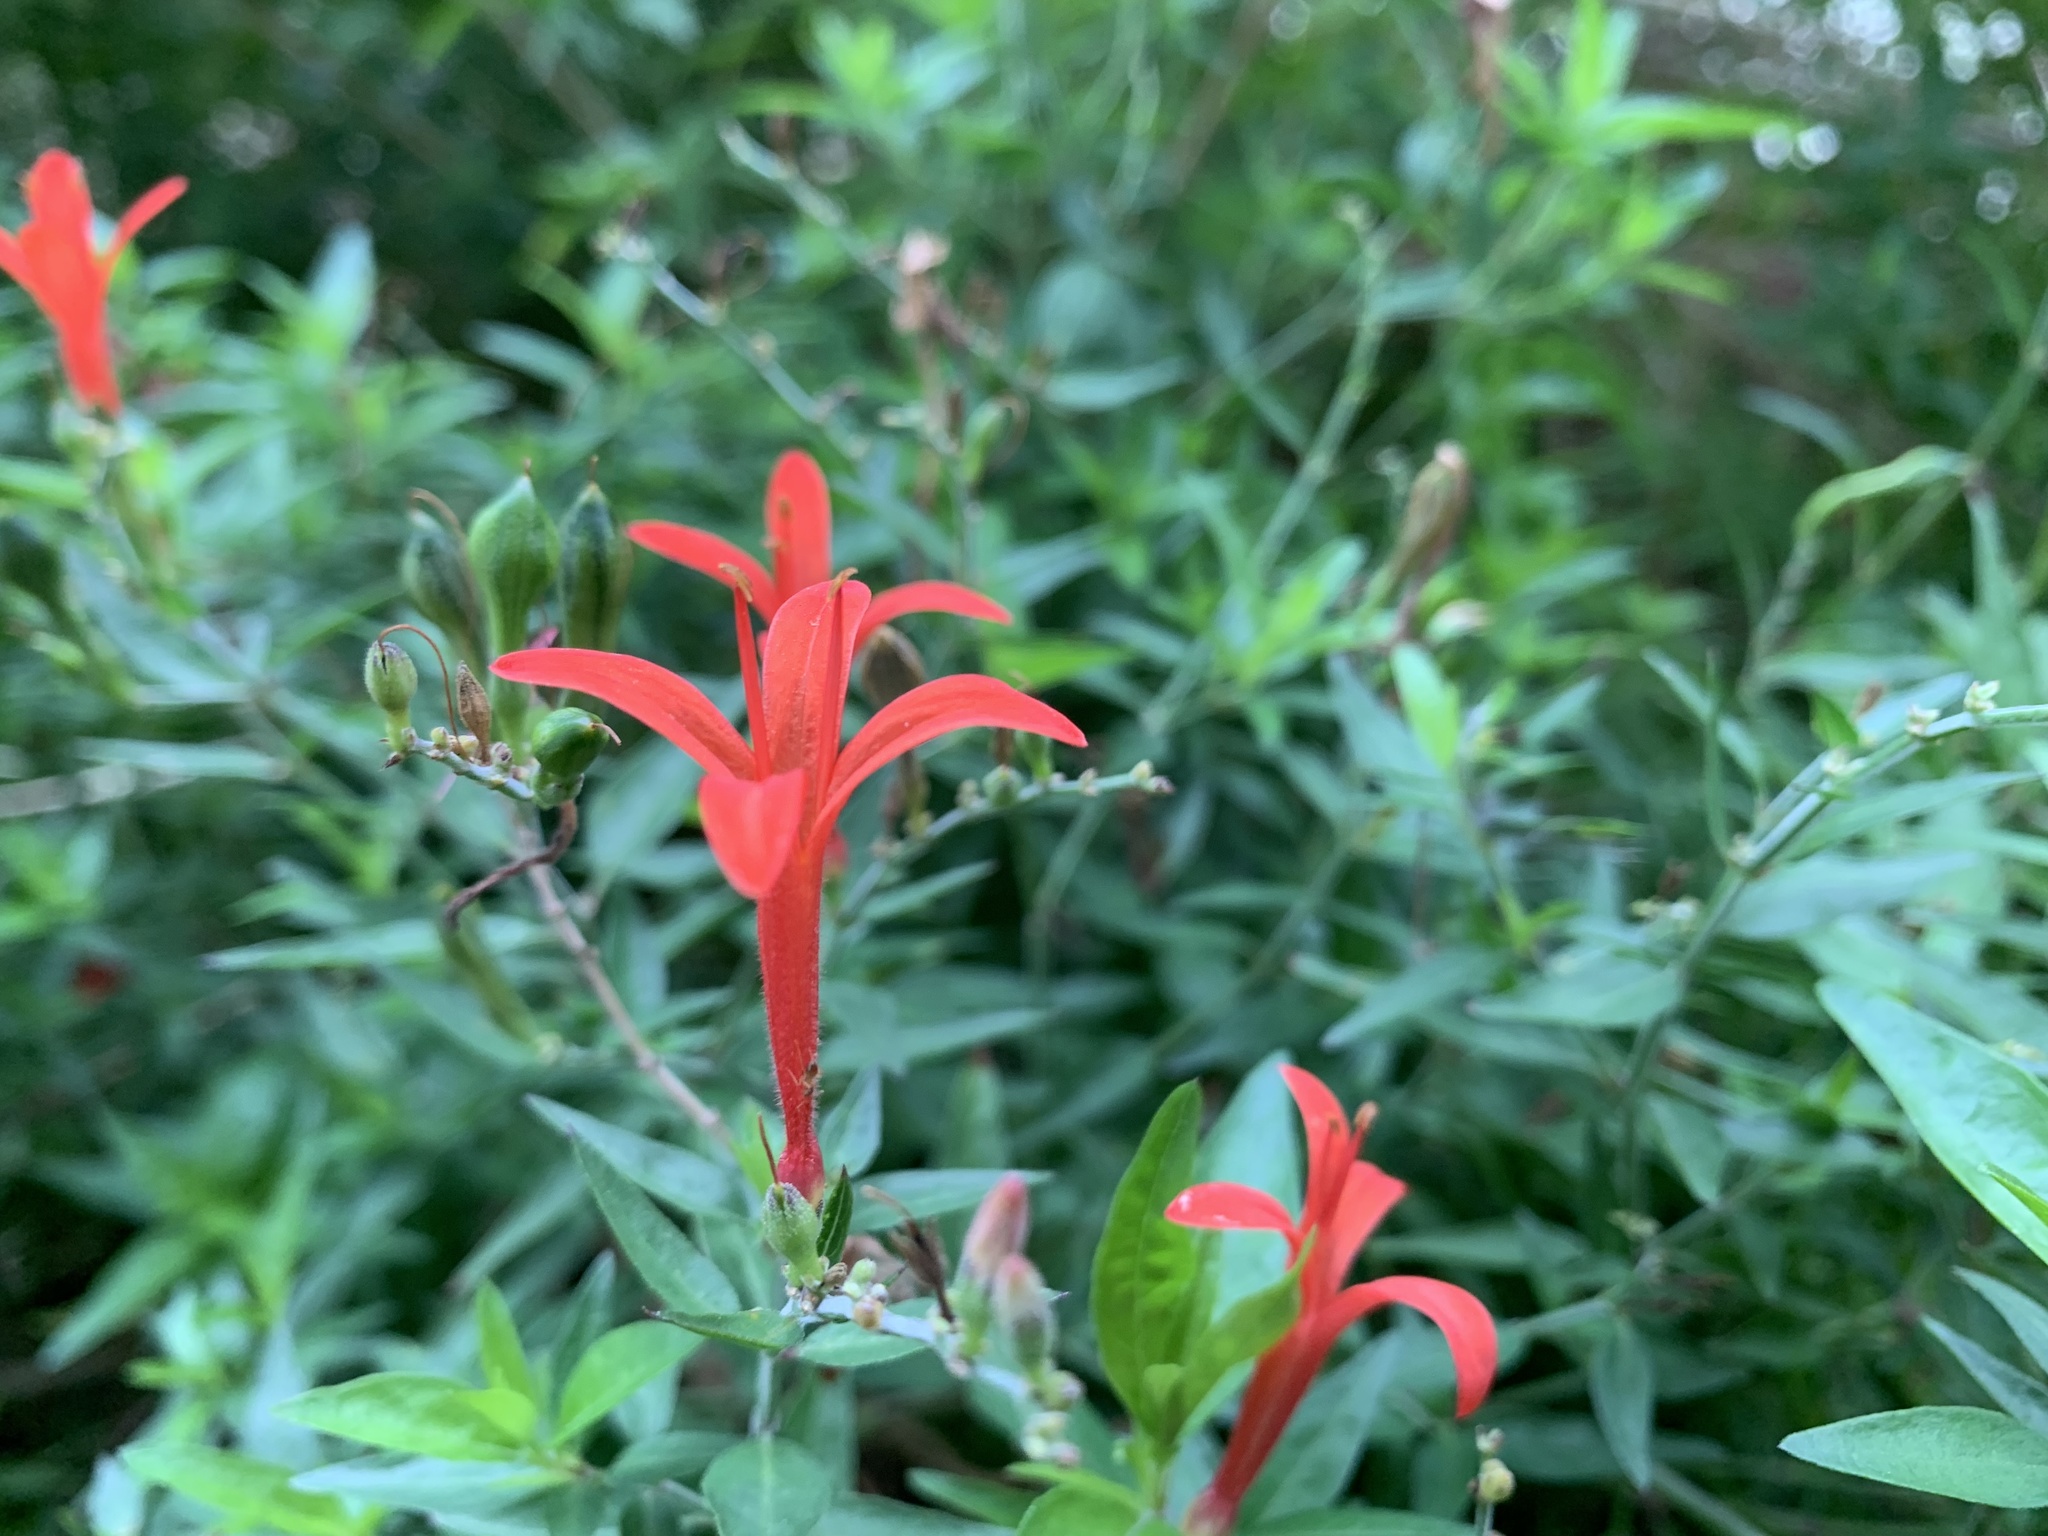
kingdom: Plantae
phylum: Tracheophyta
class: Magnoliopsida
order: Lamiales
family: Acanthaceae
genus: Anisacanthus
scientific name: Anisacanthus quadrifidus
